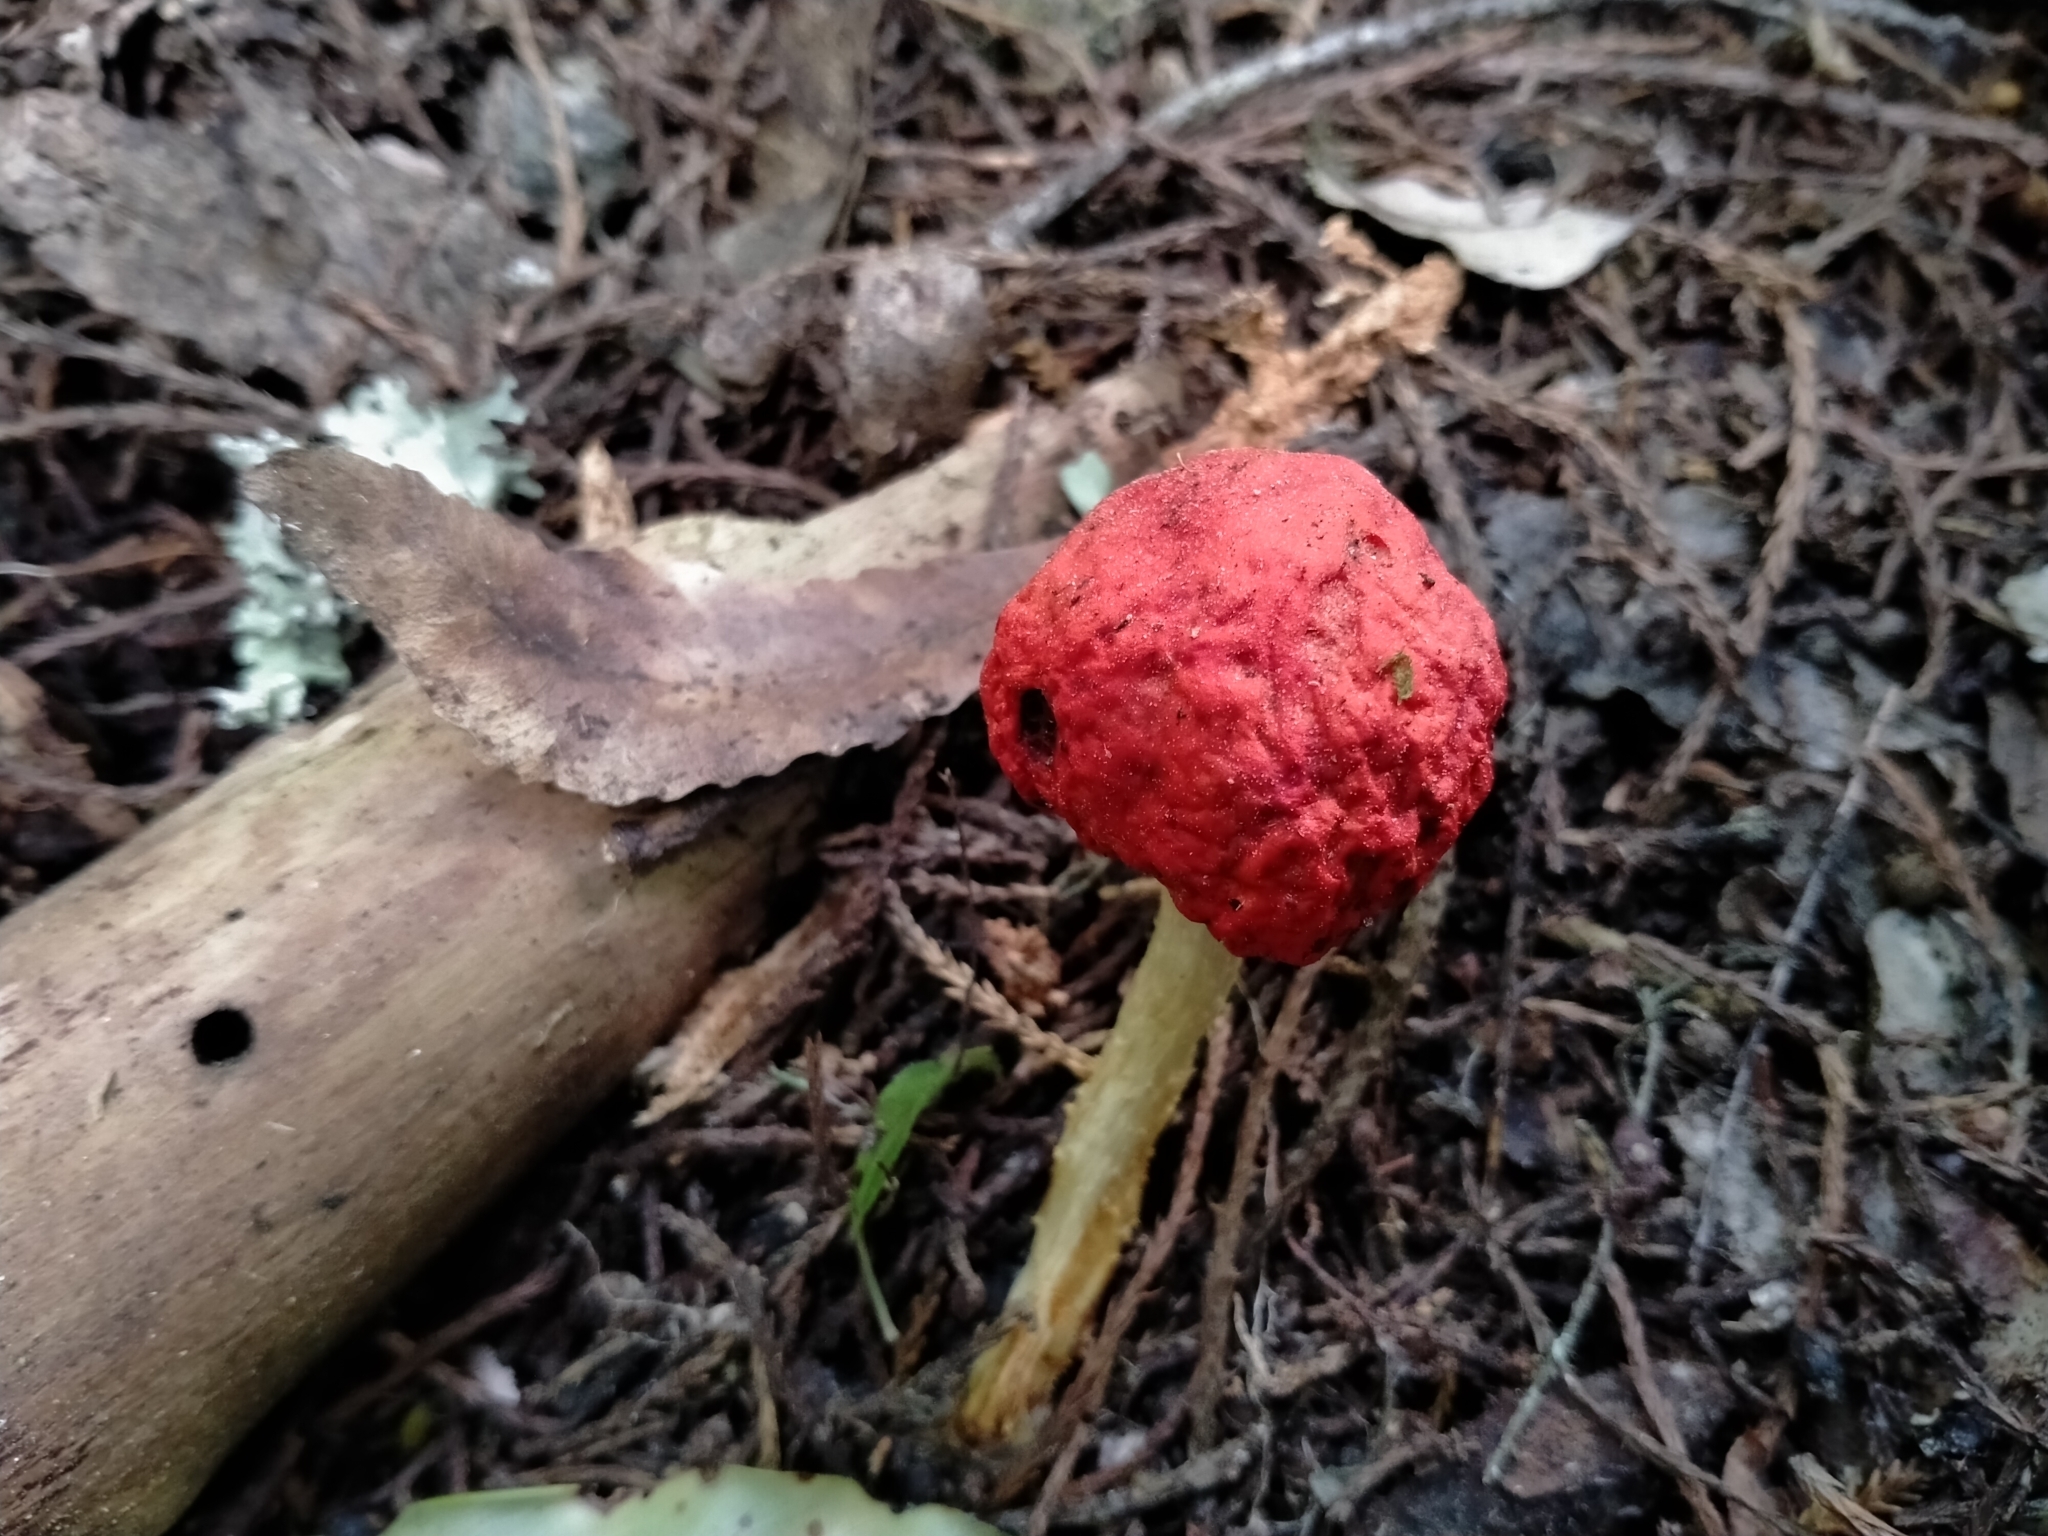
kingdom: Fungi
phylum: Basidiomycota
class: Agaricomycetes
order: Agaricales
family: Strophariaceae
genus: Leratiomyces
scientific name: Leratiomyces erythrocephalus
